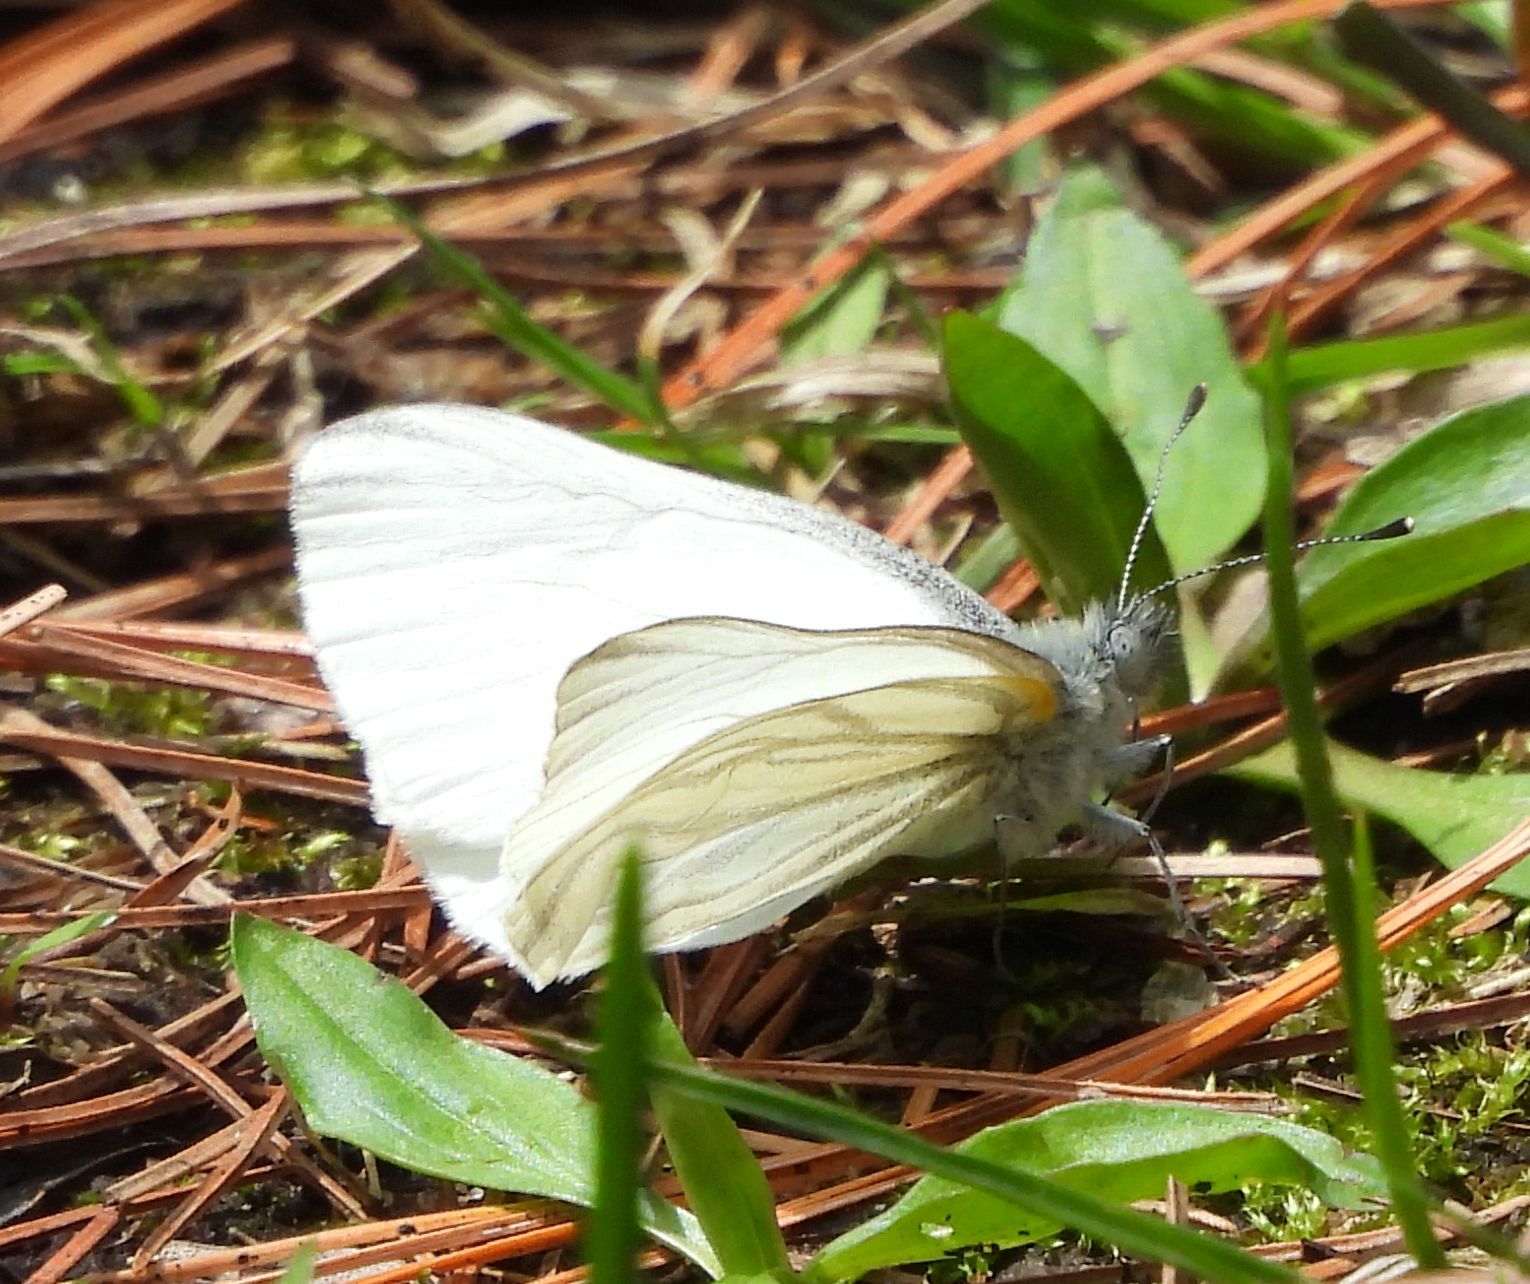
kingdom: Animalia
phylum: Arthropoda
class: Insecta
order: Lepidoptera
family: Pieridae
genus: Pieris
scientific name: Pieris oleracea
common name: Mustard white
